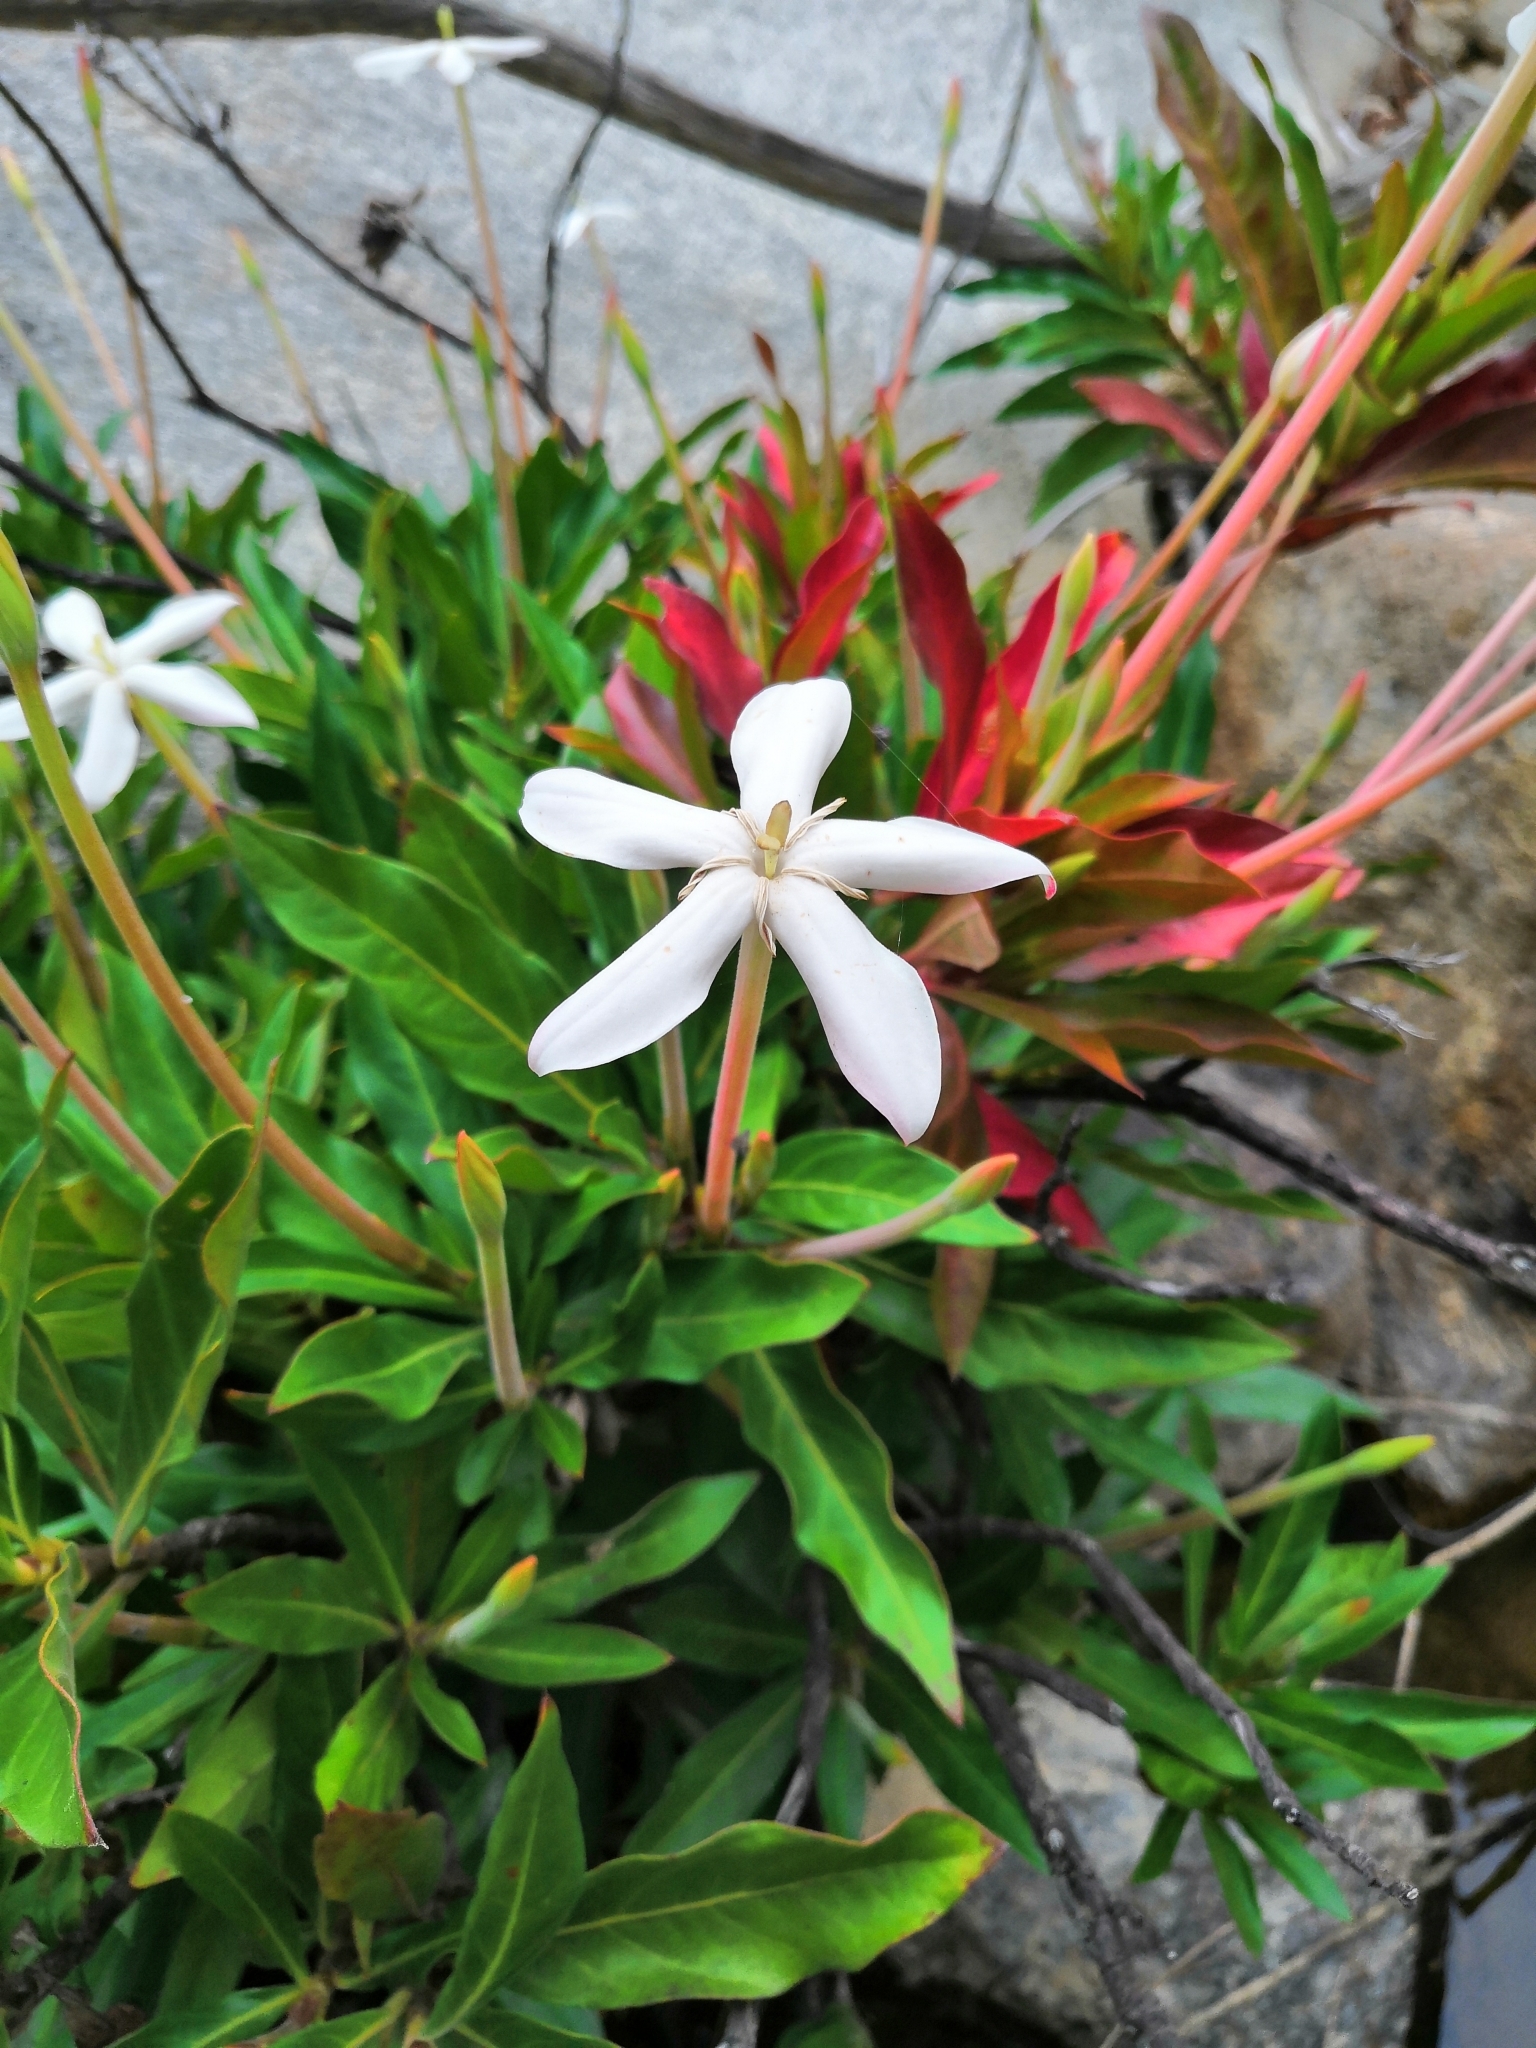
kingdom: Plantae
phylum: Tracheophyta
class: Magnoliopsida
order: Gentianales
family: Rubiaceae
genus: Augusta
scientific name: Augusta rivalis
